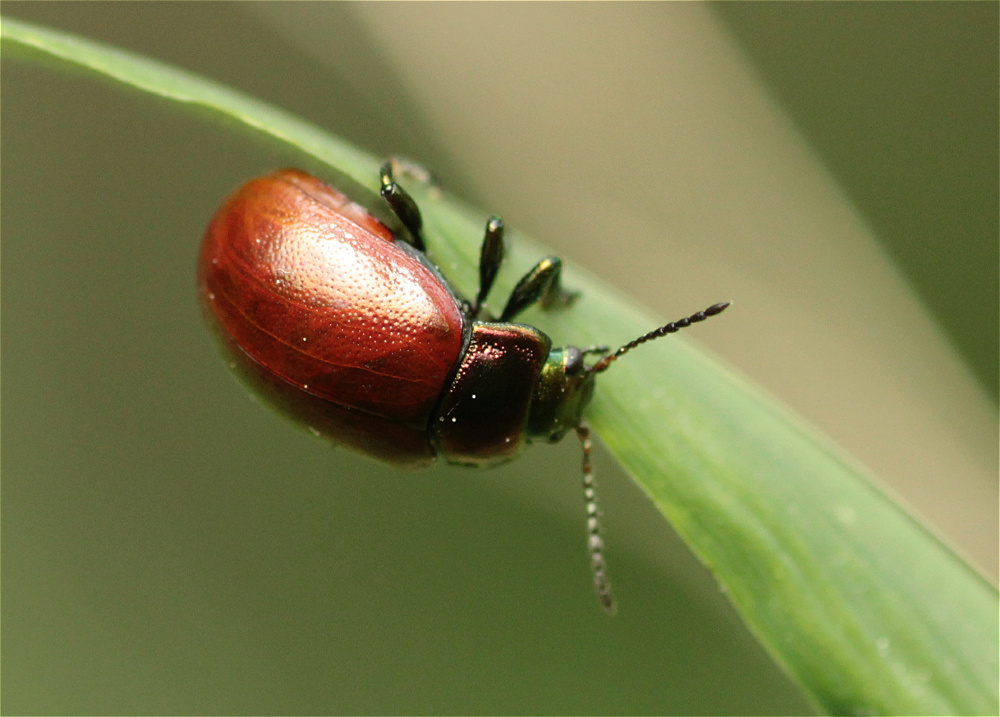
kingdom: Animalia
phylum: Arthropoda
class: Insecta
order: Coleoptera
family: Chrysomelidae
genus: Chrysomela
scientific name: Chrysomela polita
